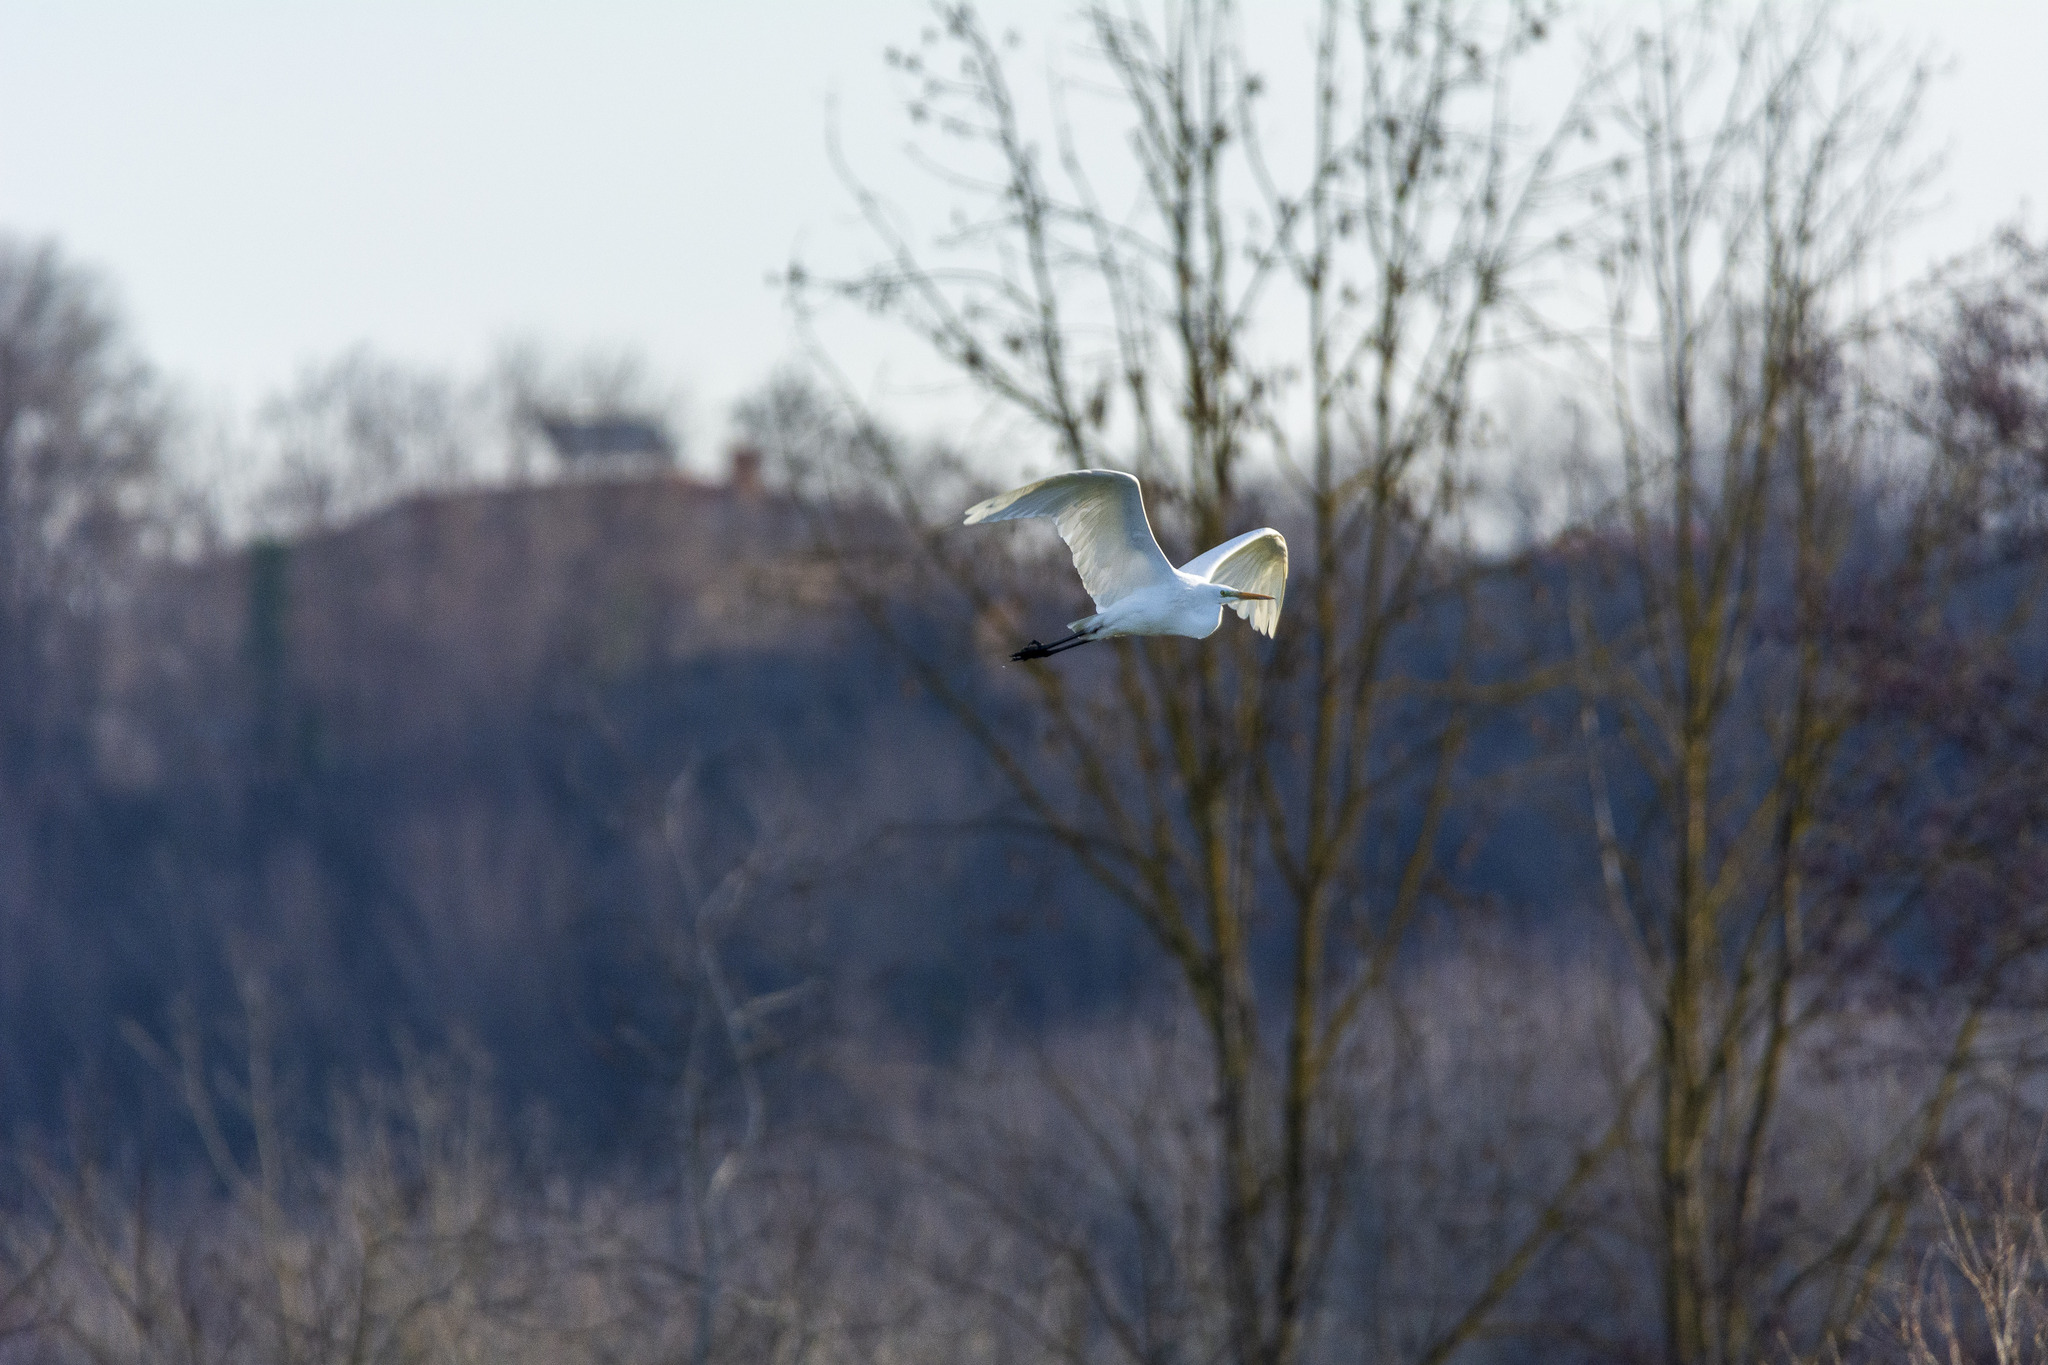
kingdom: Animalia
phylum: Chordata
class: Aves
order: Pelecaniformes
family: Ardeidae
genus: Ardea
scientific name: Ardea alba
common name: Great egret
